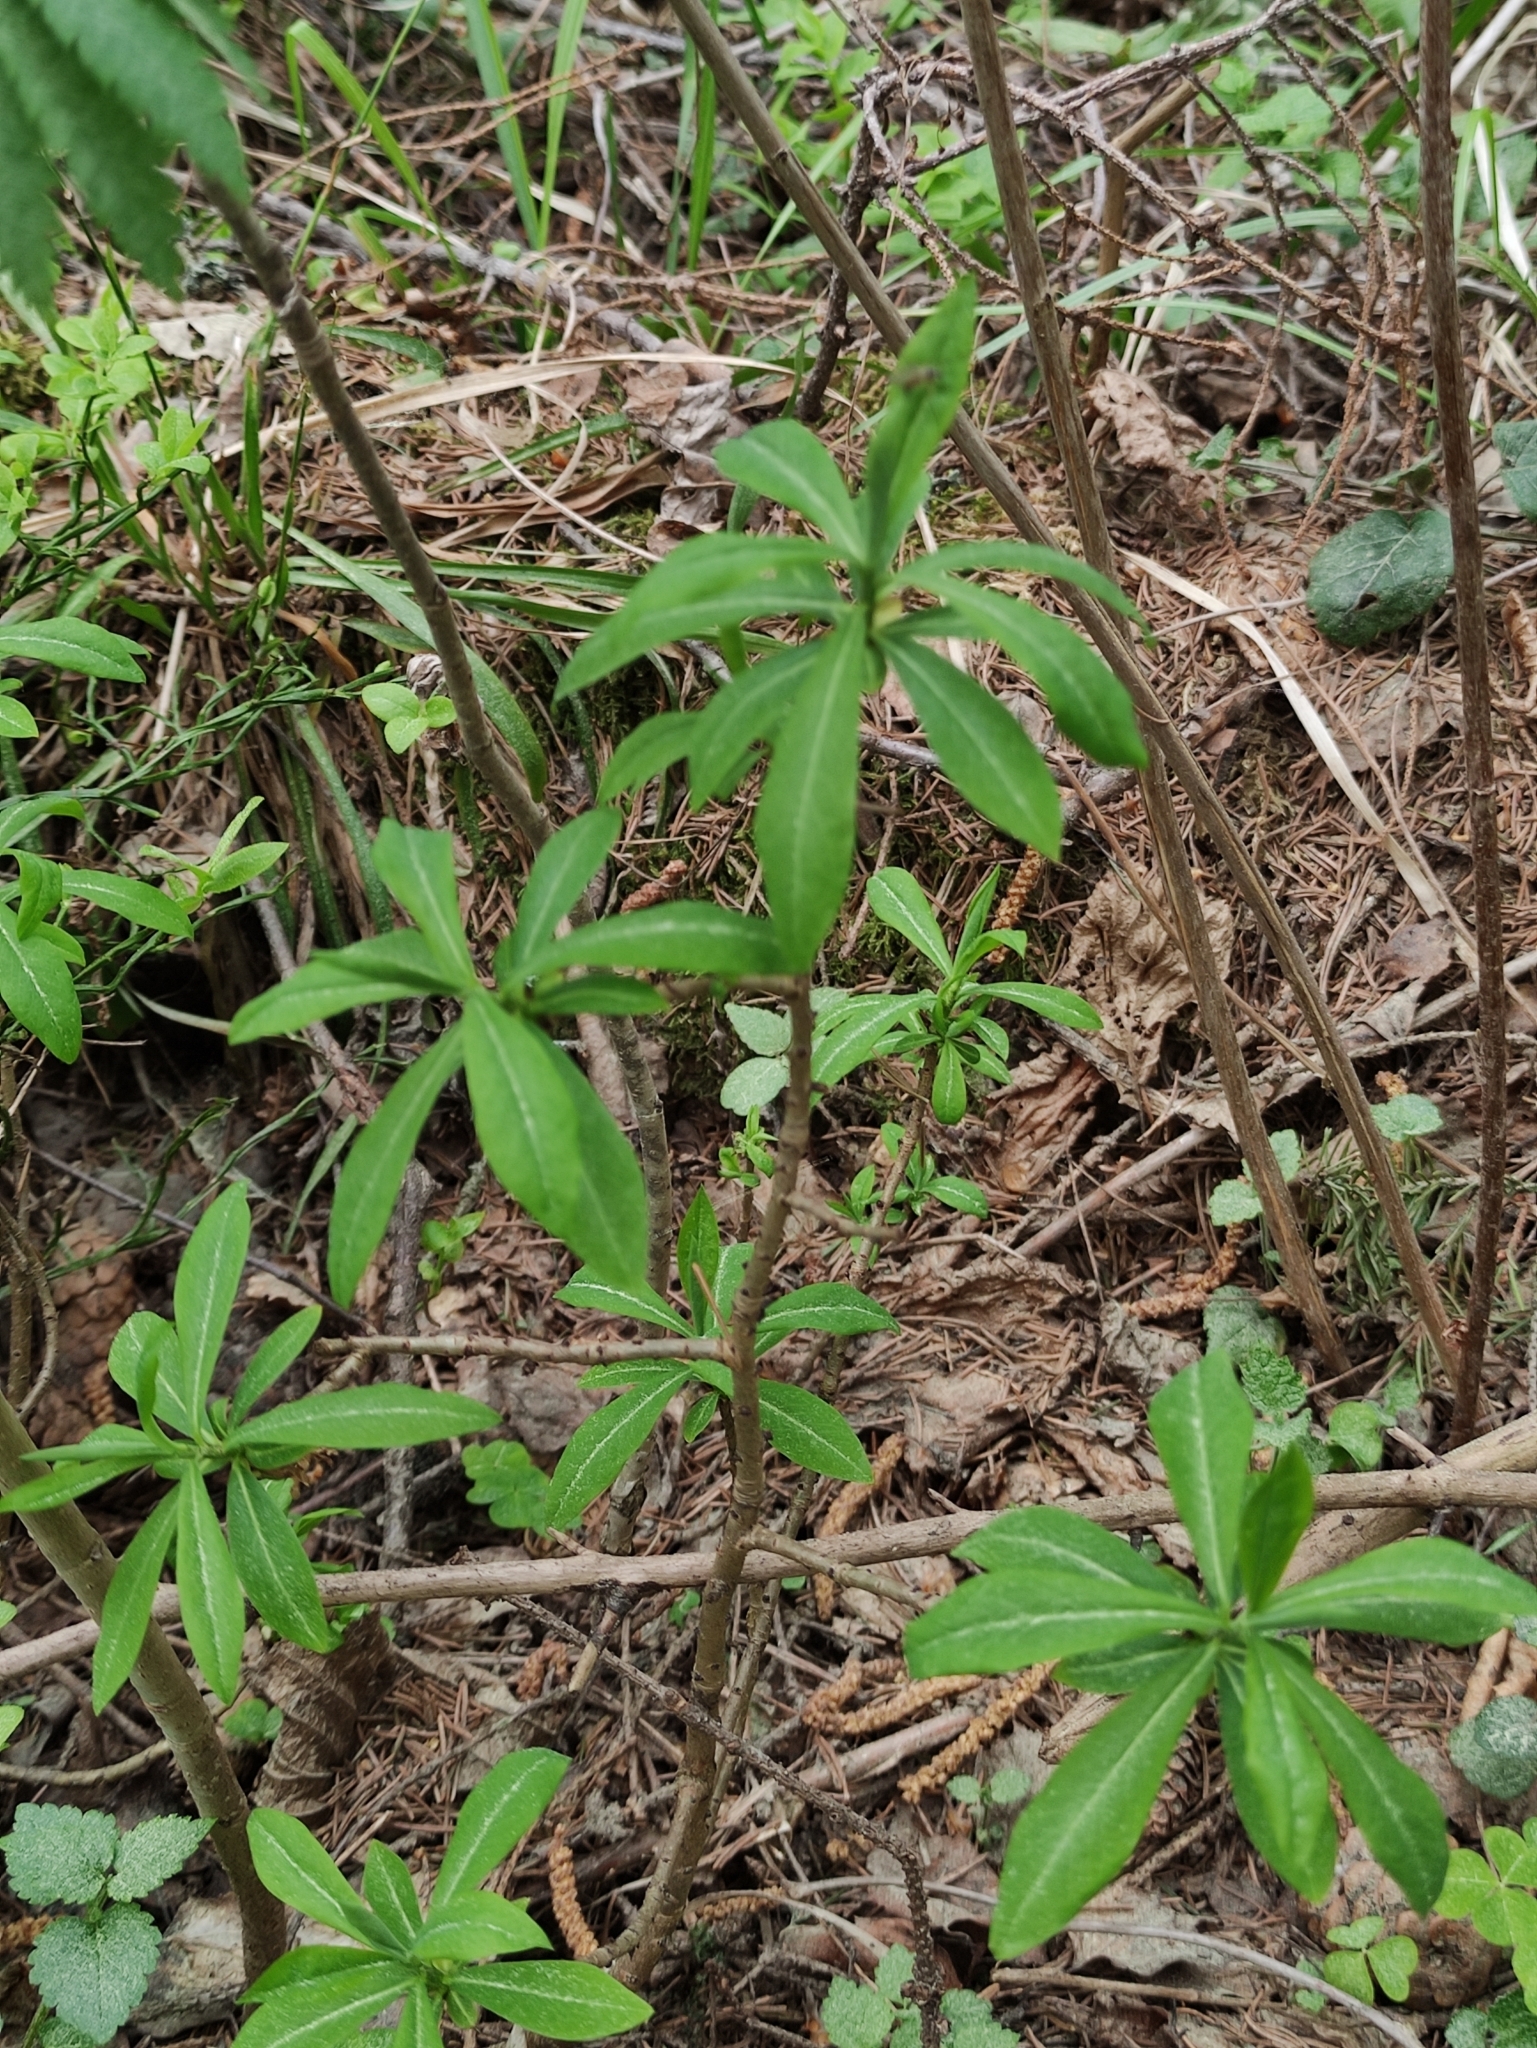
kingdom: Plantae
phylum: Tracheophyta
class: Magnoliopsida
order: Malvales
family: Thymelaeaceae
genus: Daphne
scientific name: Daphne mezereum
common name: Mezereon
